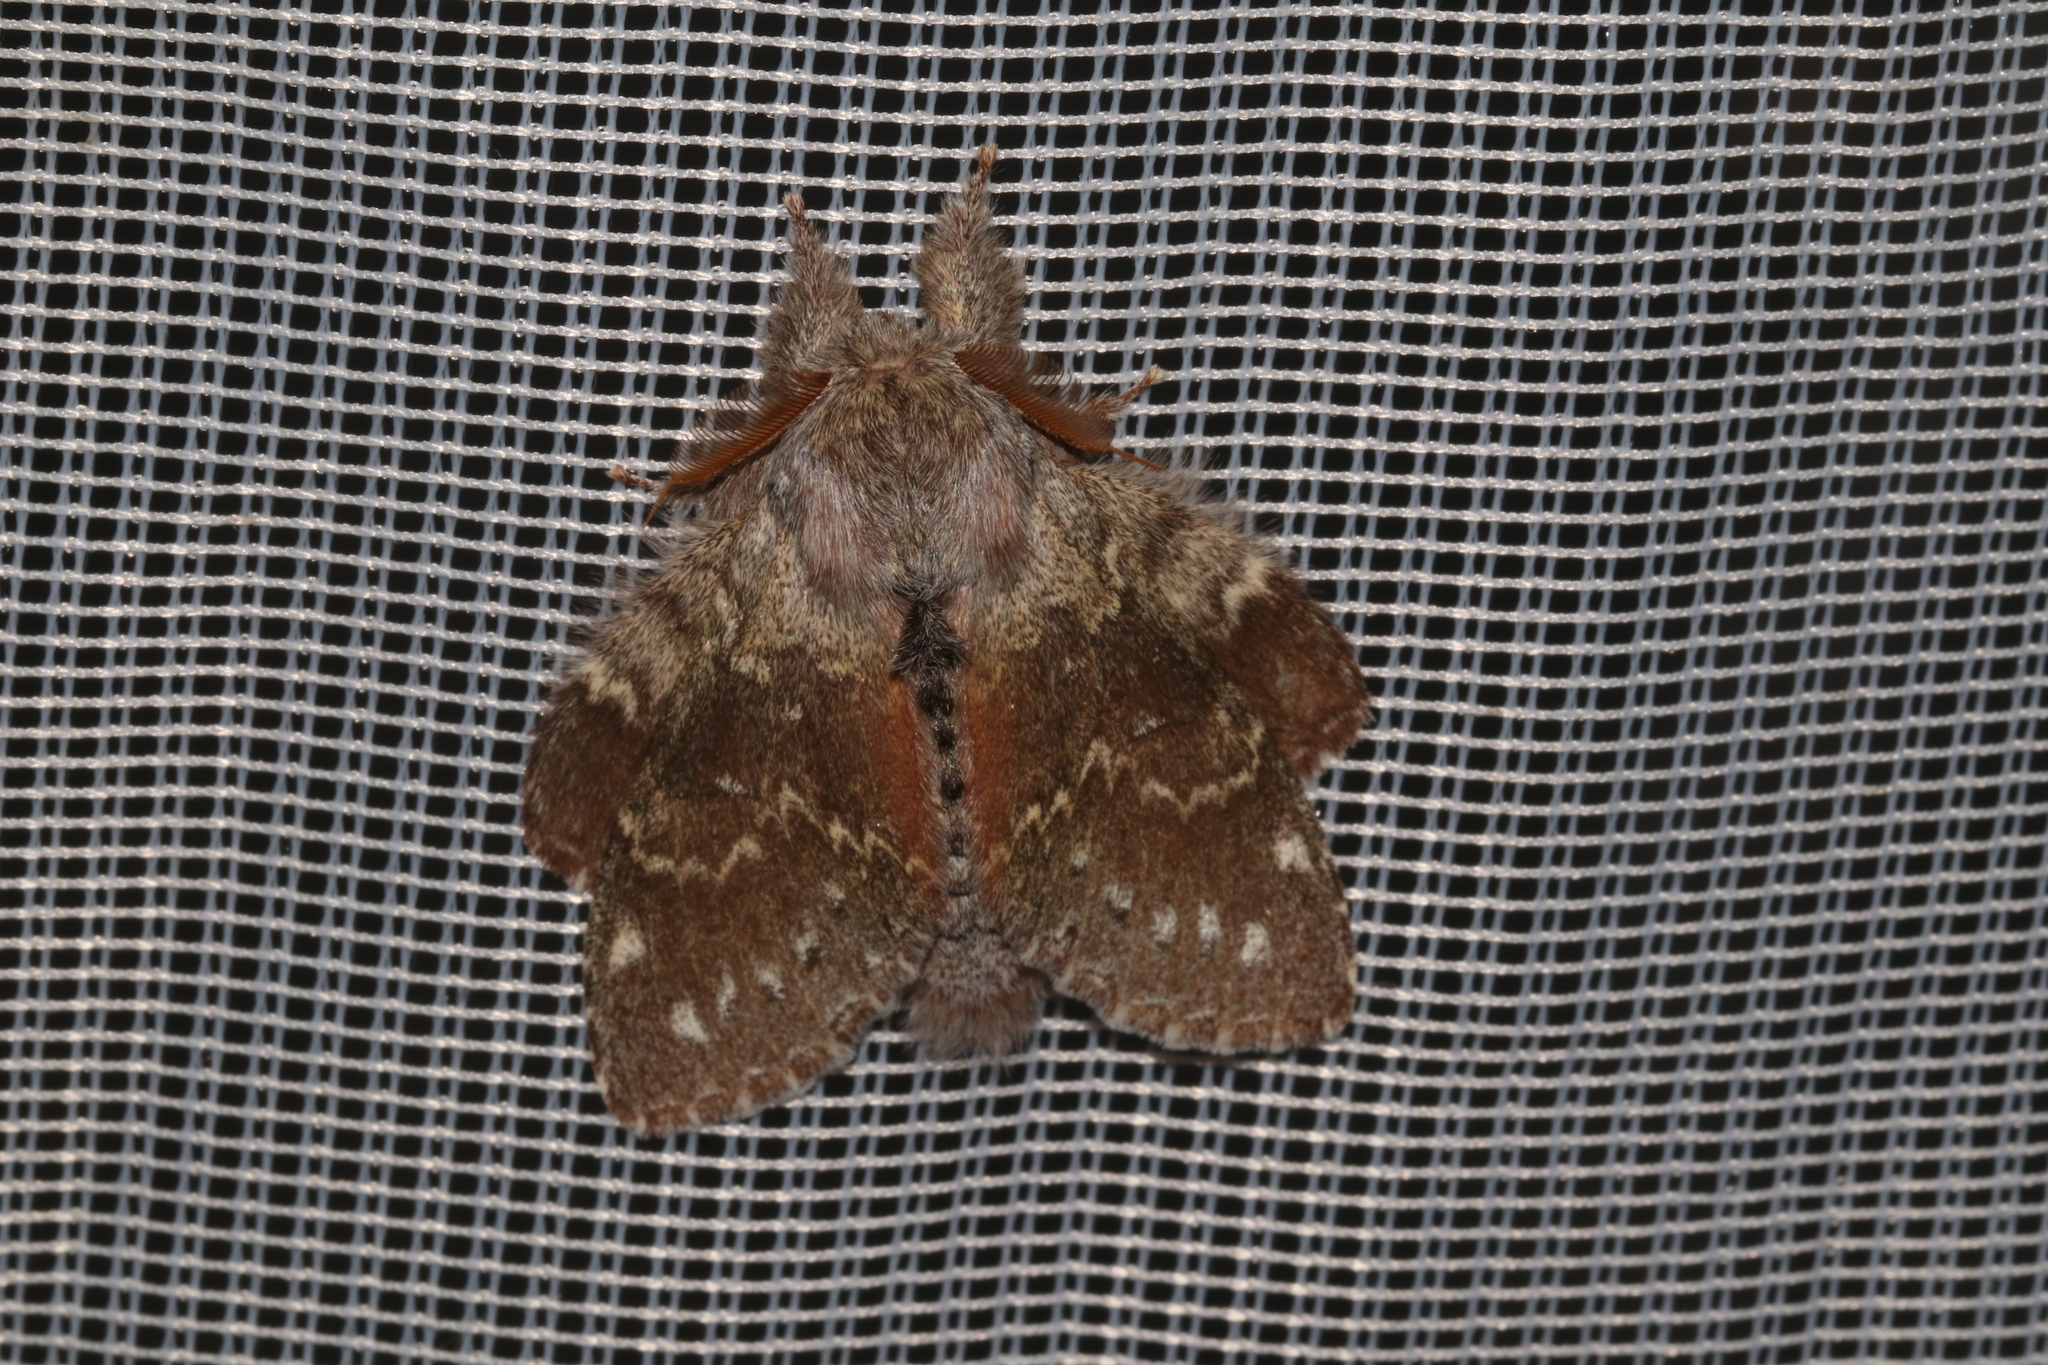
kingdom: Animalia
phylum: Arthropoda
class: Insecta
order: Lepidoptera
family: Notodontidae
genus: Stauropus
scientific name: Stauropus fagi
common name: Lobster moth
